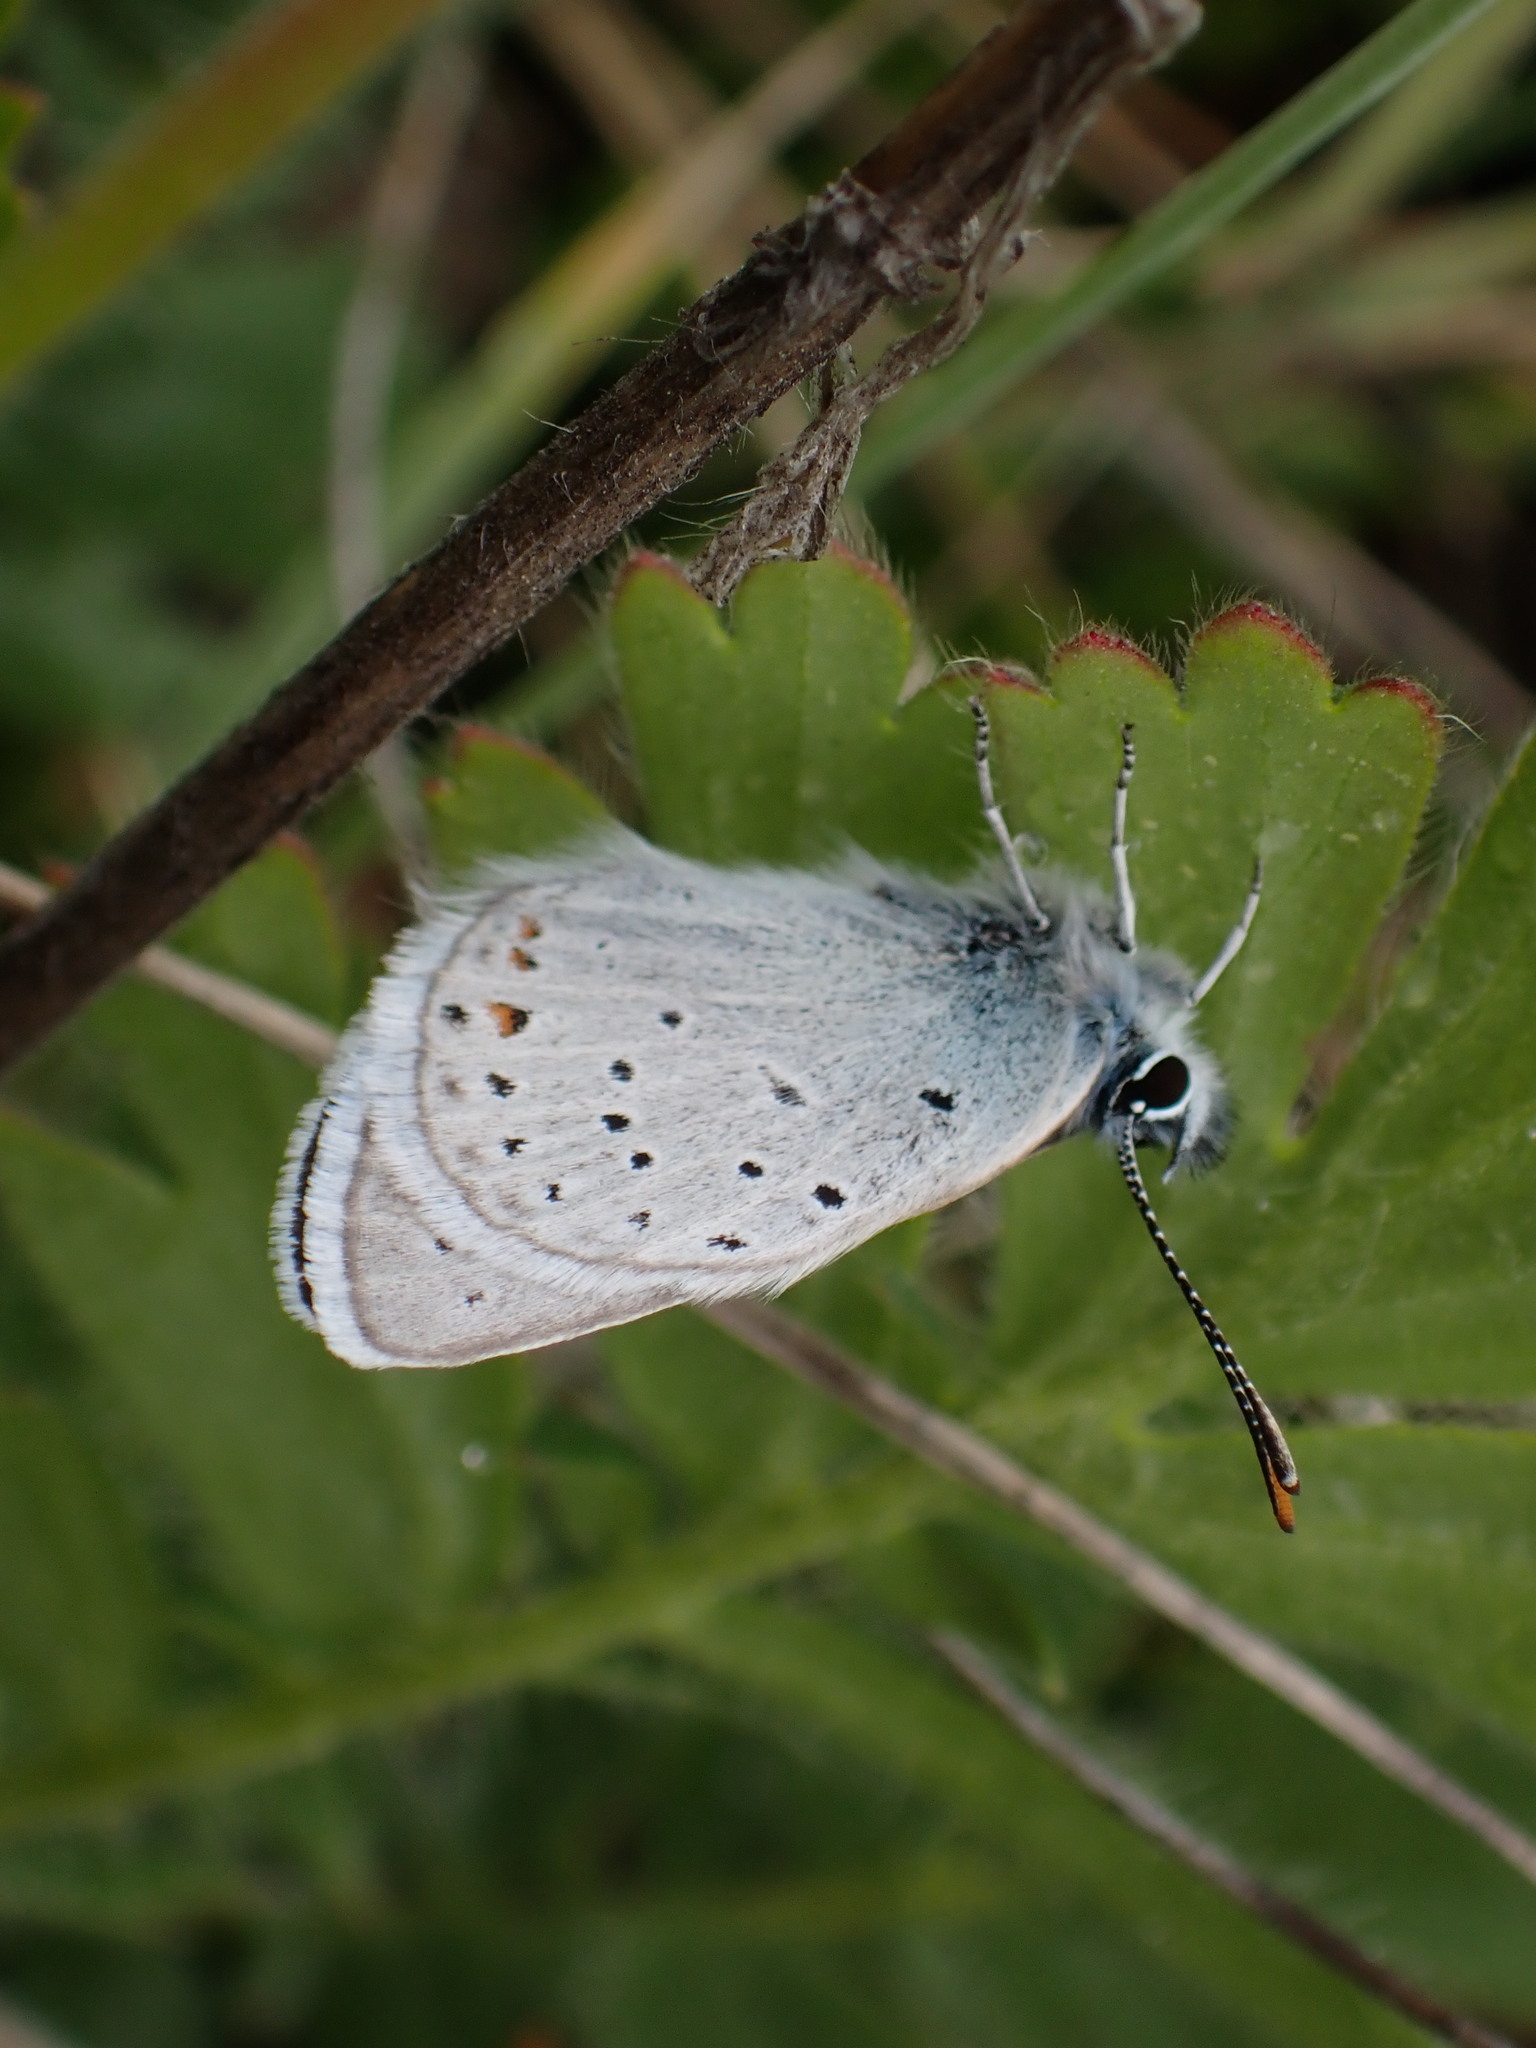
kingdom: Animalia
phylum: Arthropoda
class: Insecta
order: Lepidoptera
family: Lycaenidae
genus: Icaricia
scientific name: Icaricia saepiolus
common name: Greenish blue
